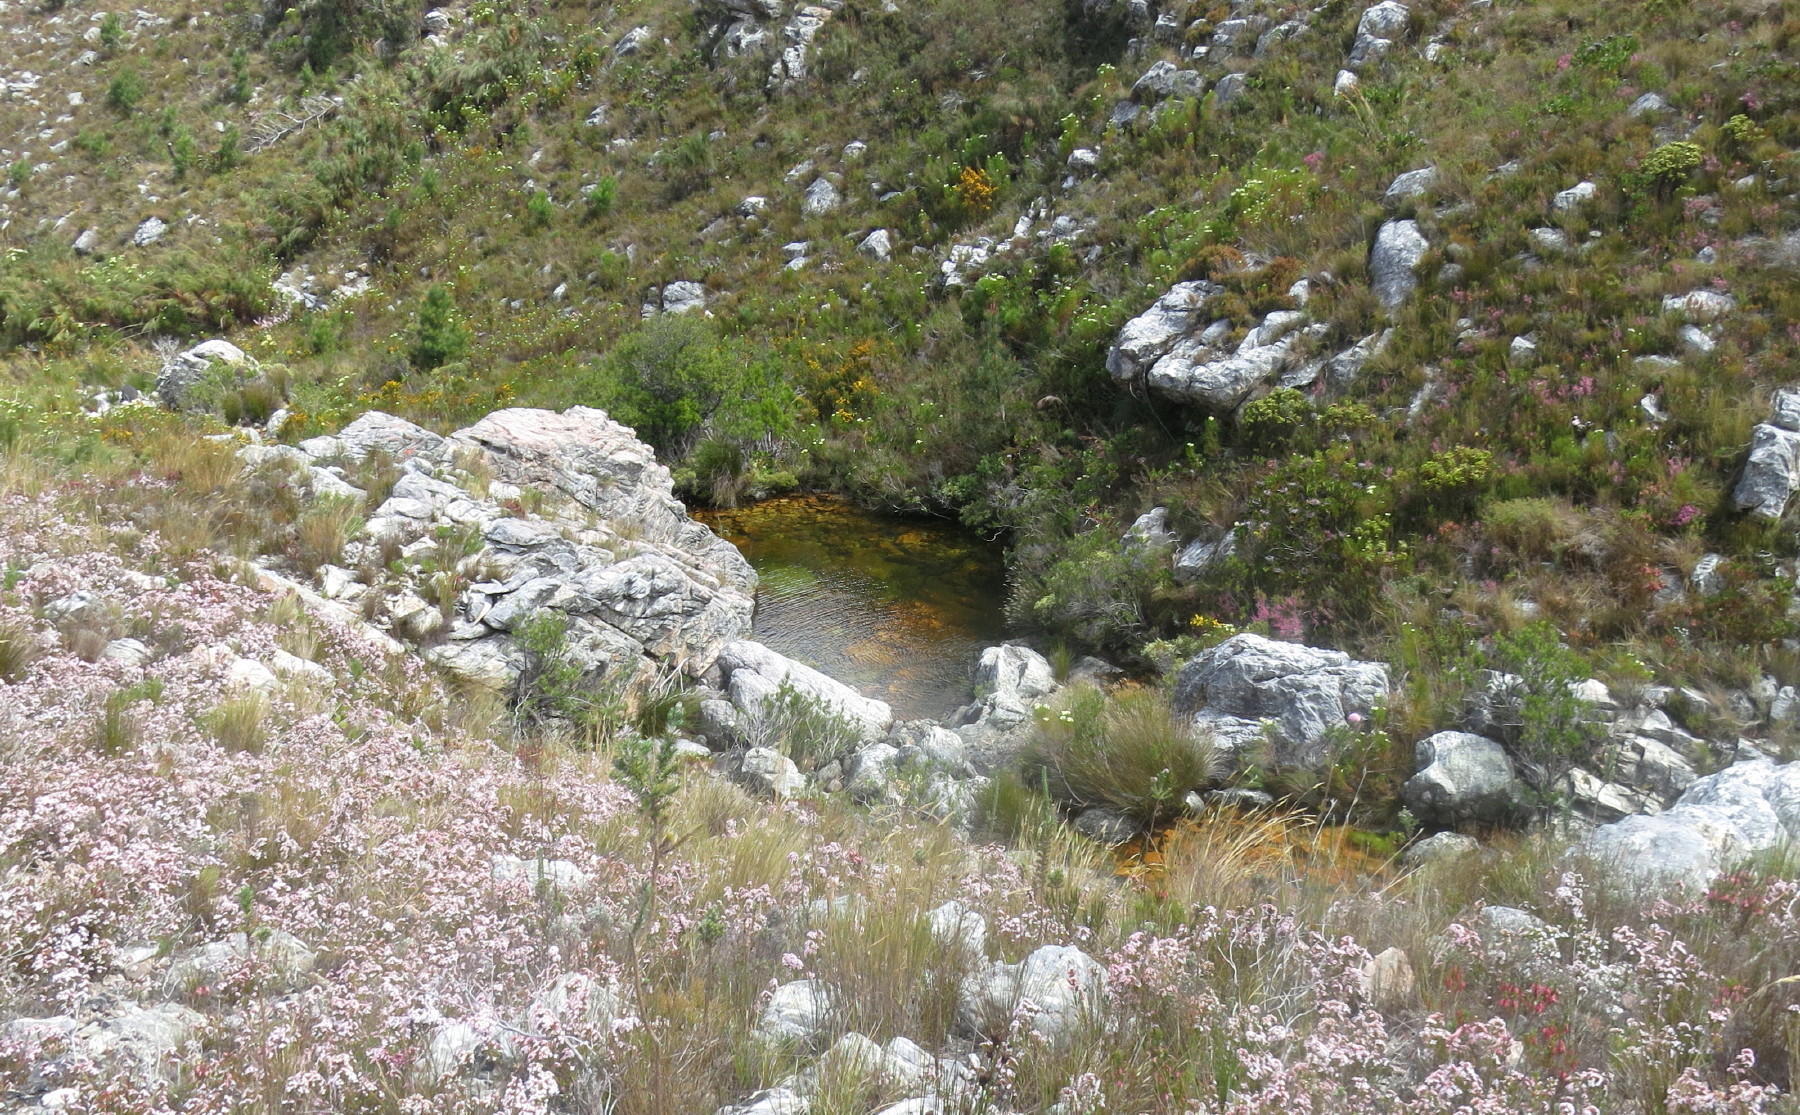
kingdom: Plantae
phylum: Tracheophyta
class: Magnoliopsida
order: Ericales
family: Ericaceae
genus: Erica
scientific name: Erica walkeria
